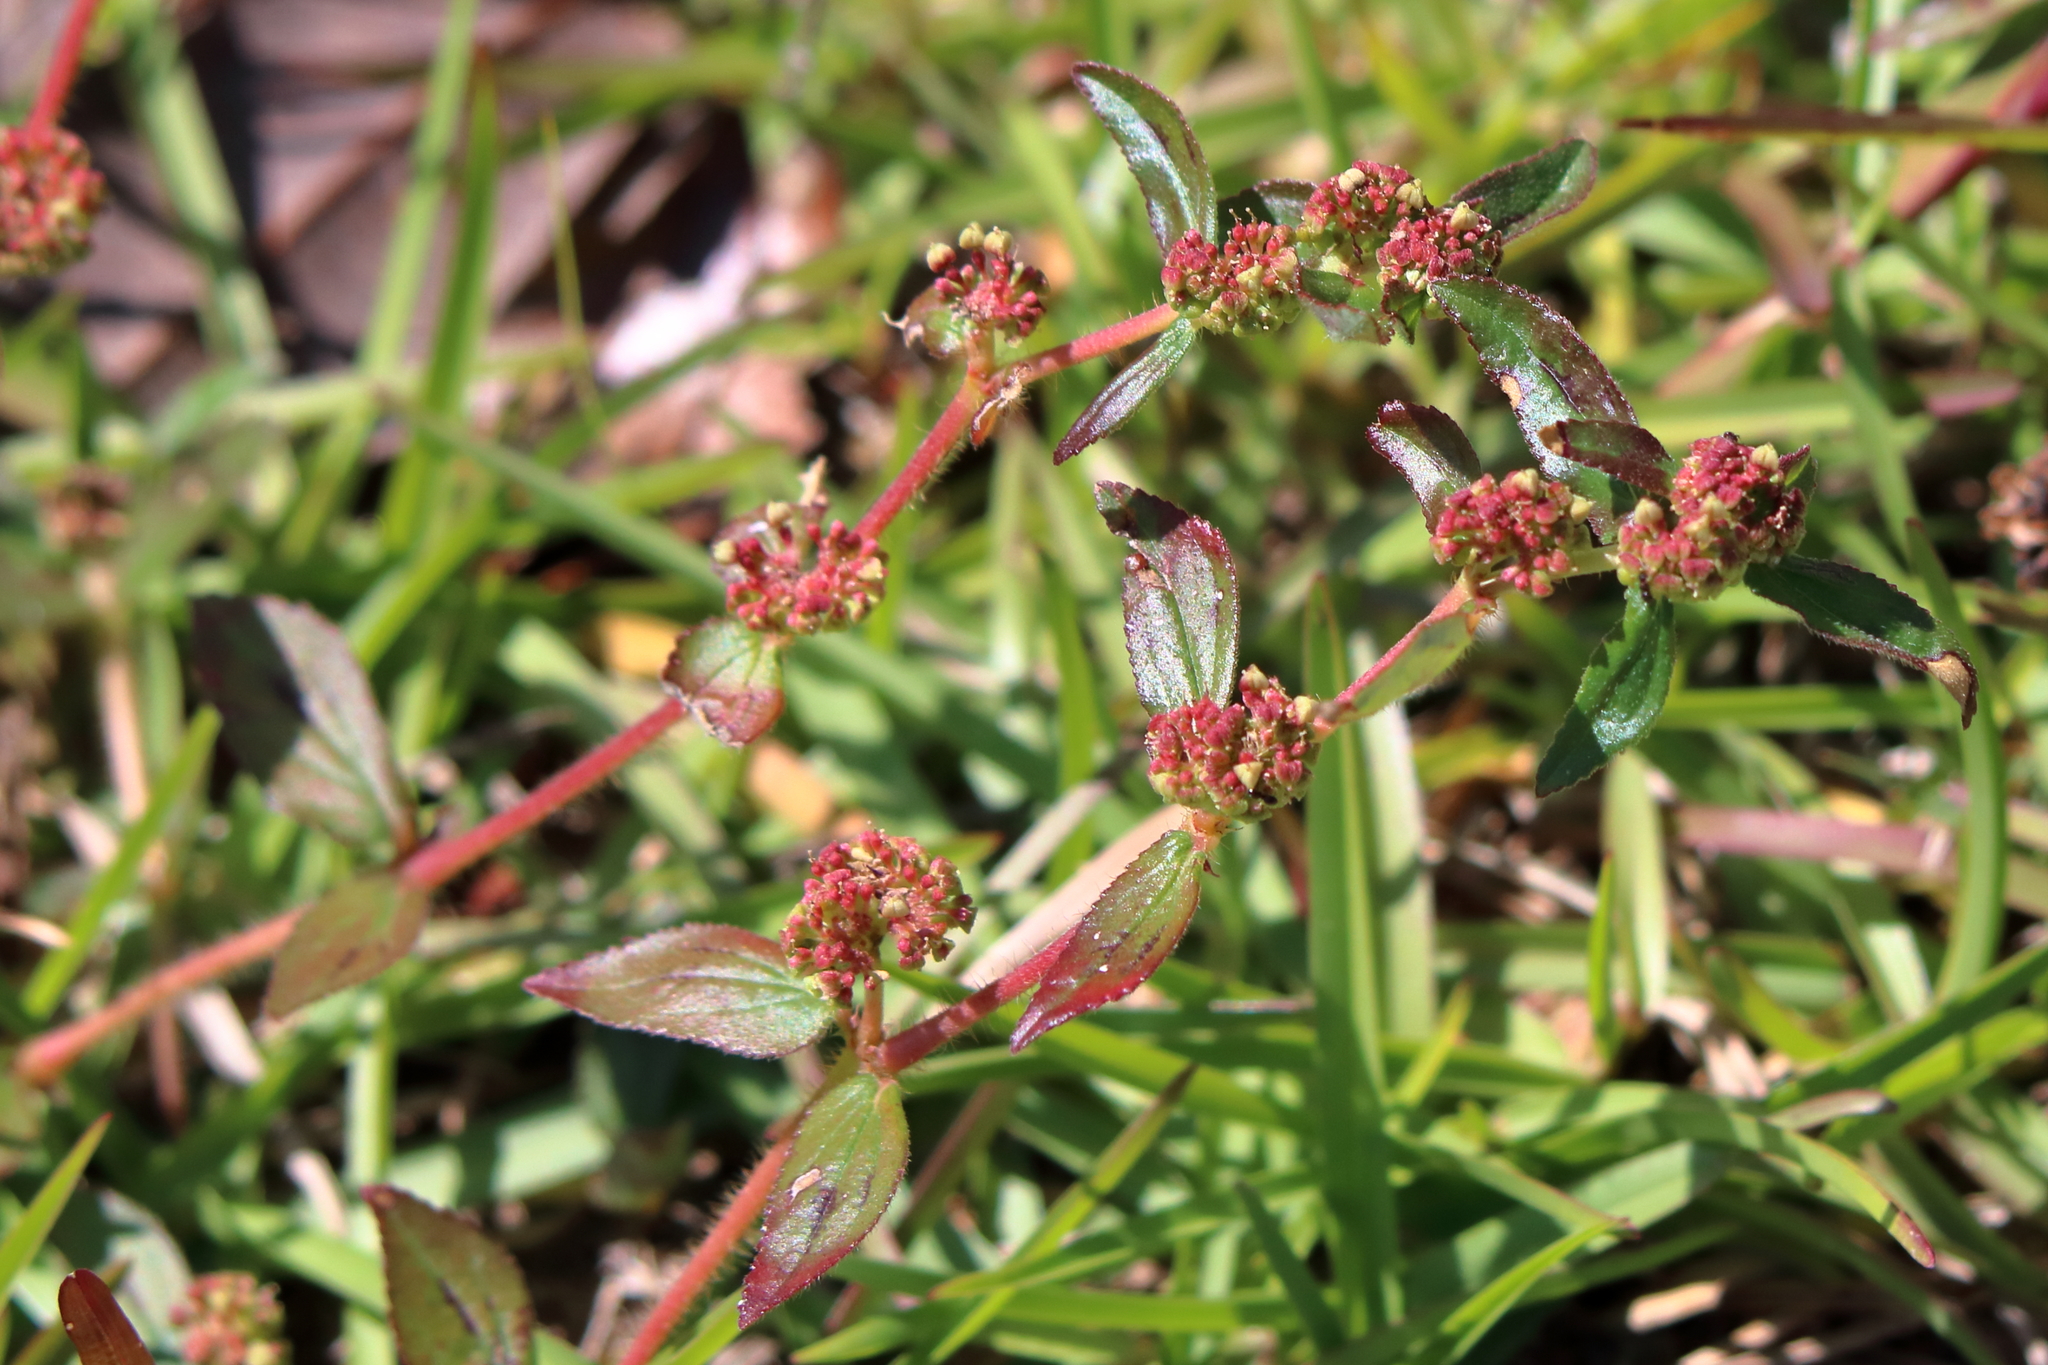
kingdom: Plantae
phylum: Tracheophyta
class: Magnoliopsida
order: Malpighiales
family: Euphorbiaceae
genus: Euphorbia
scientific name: Euphorbia hirta
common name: Pillpod sandmat
